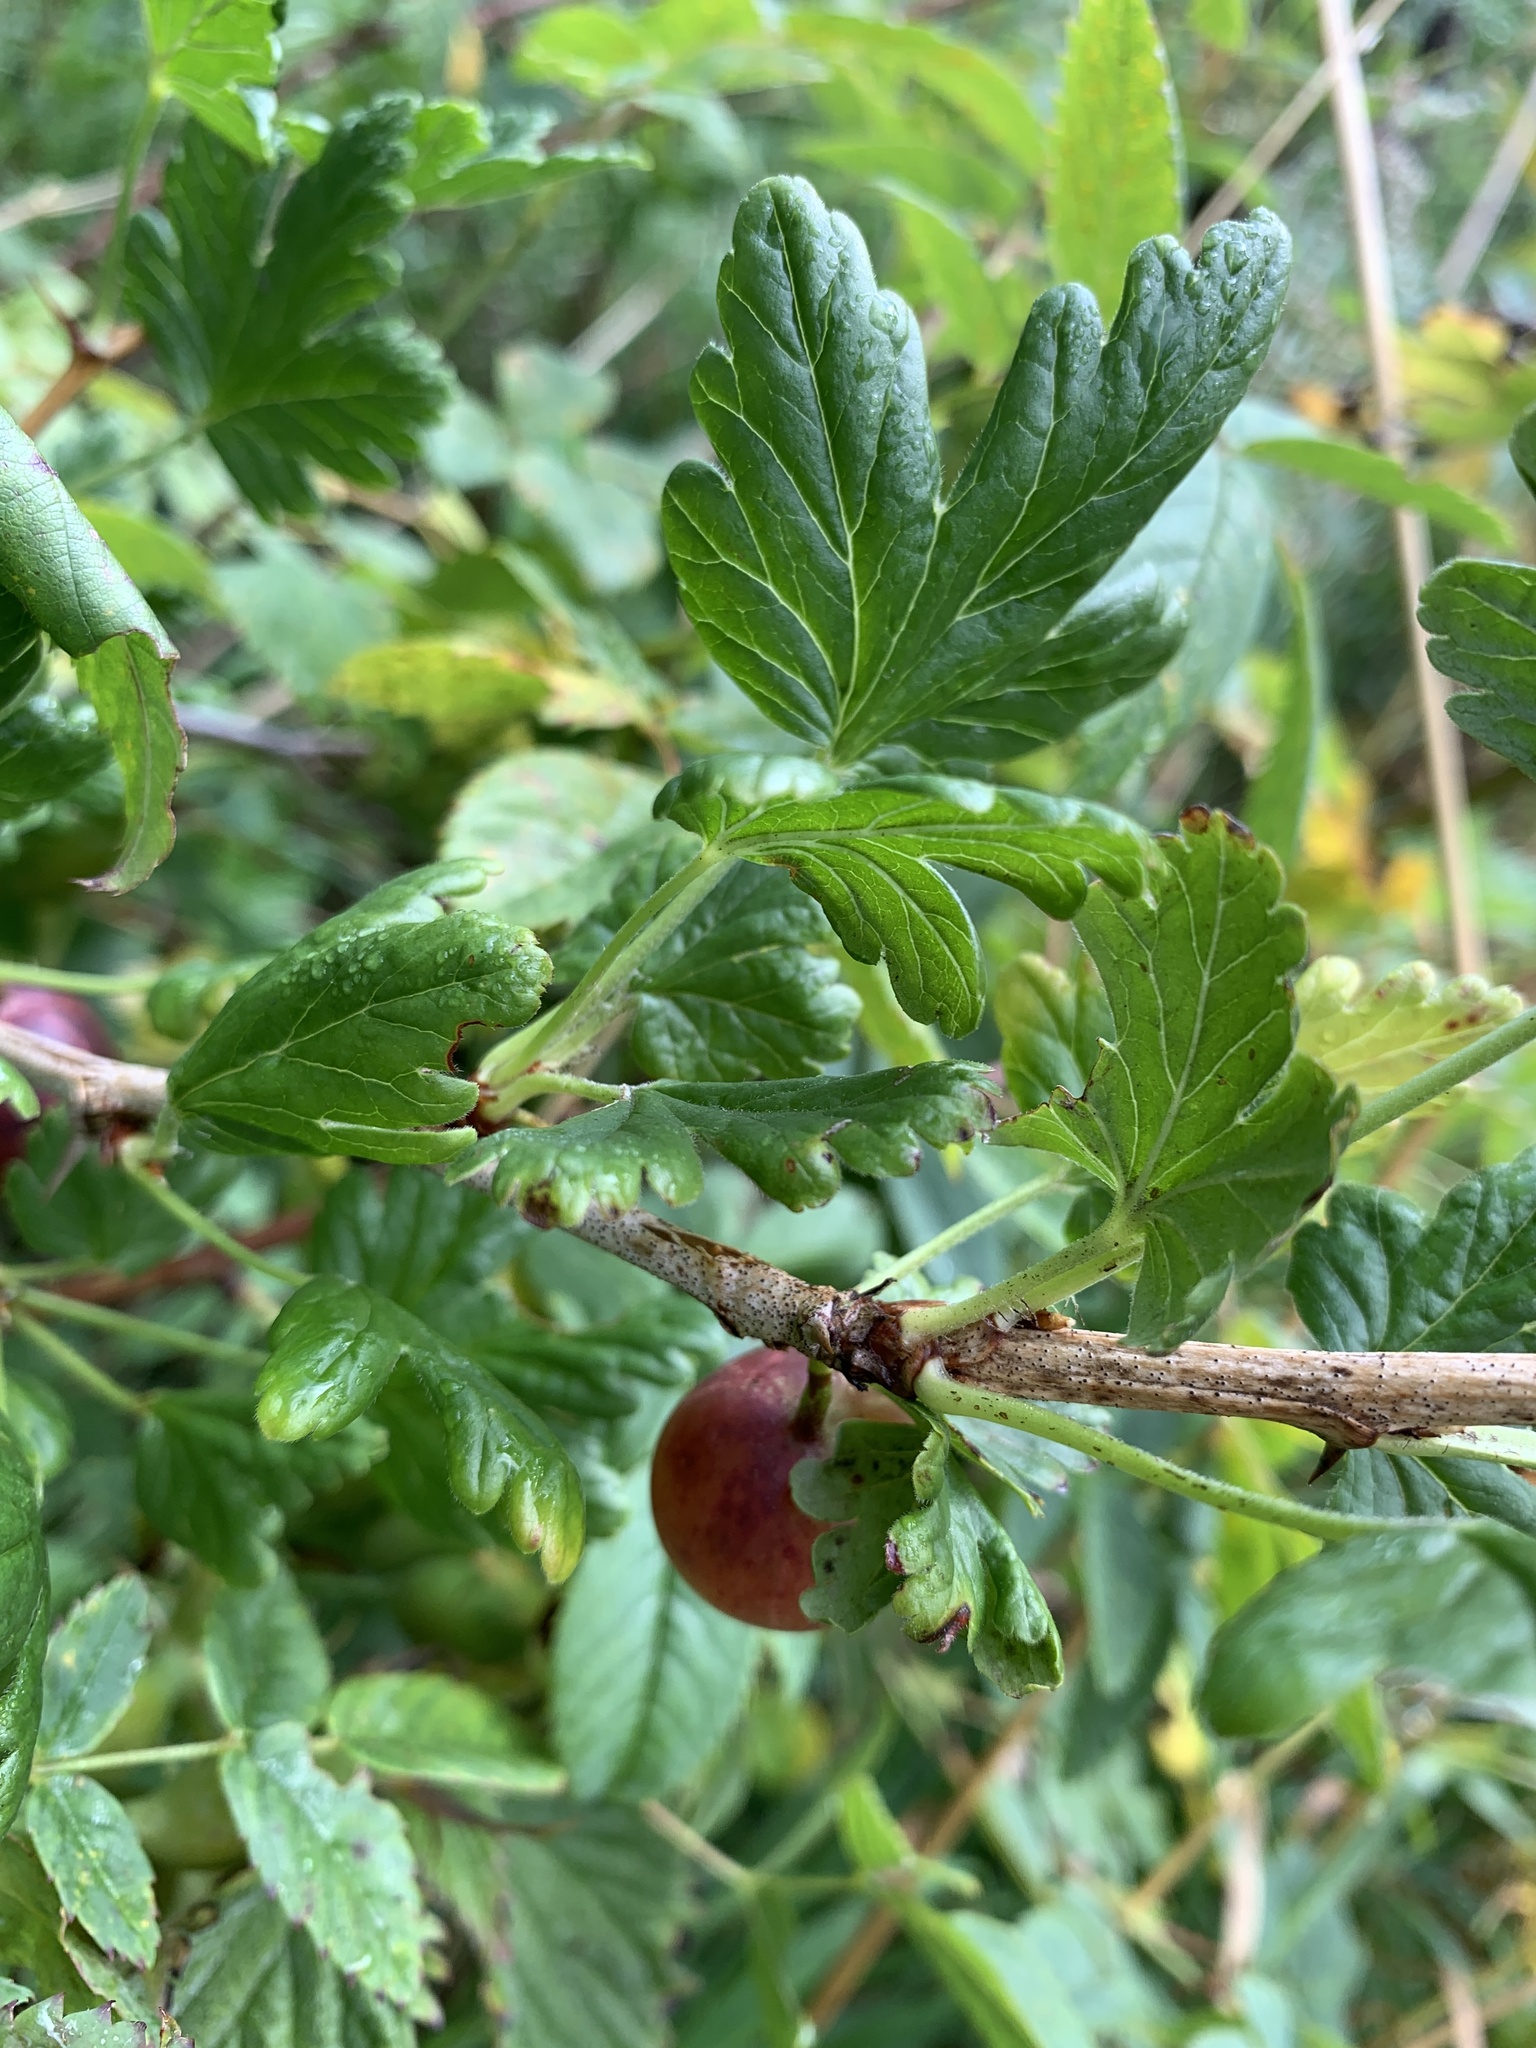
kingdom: Plantae
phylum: Tracheophyta
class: Magnoliopsida
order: Saxifragales
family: Grossulariaceae
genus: Ribes
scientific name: Ribes uva-crispa
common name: Gooseberry
